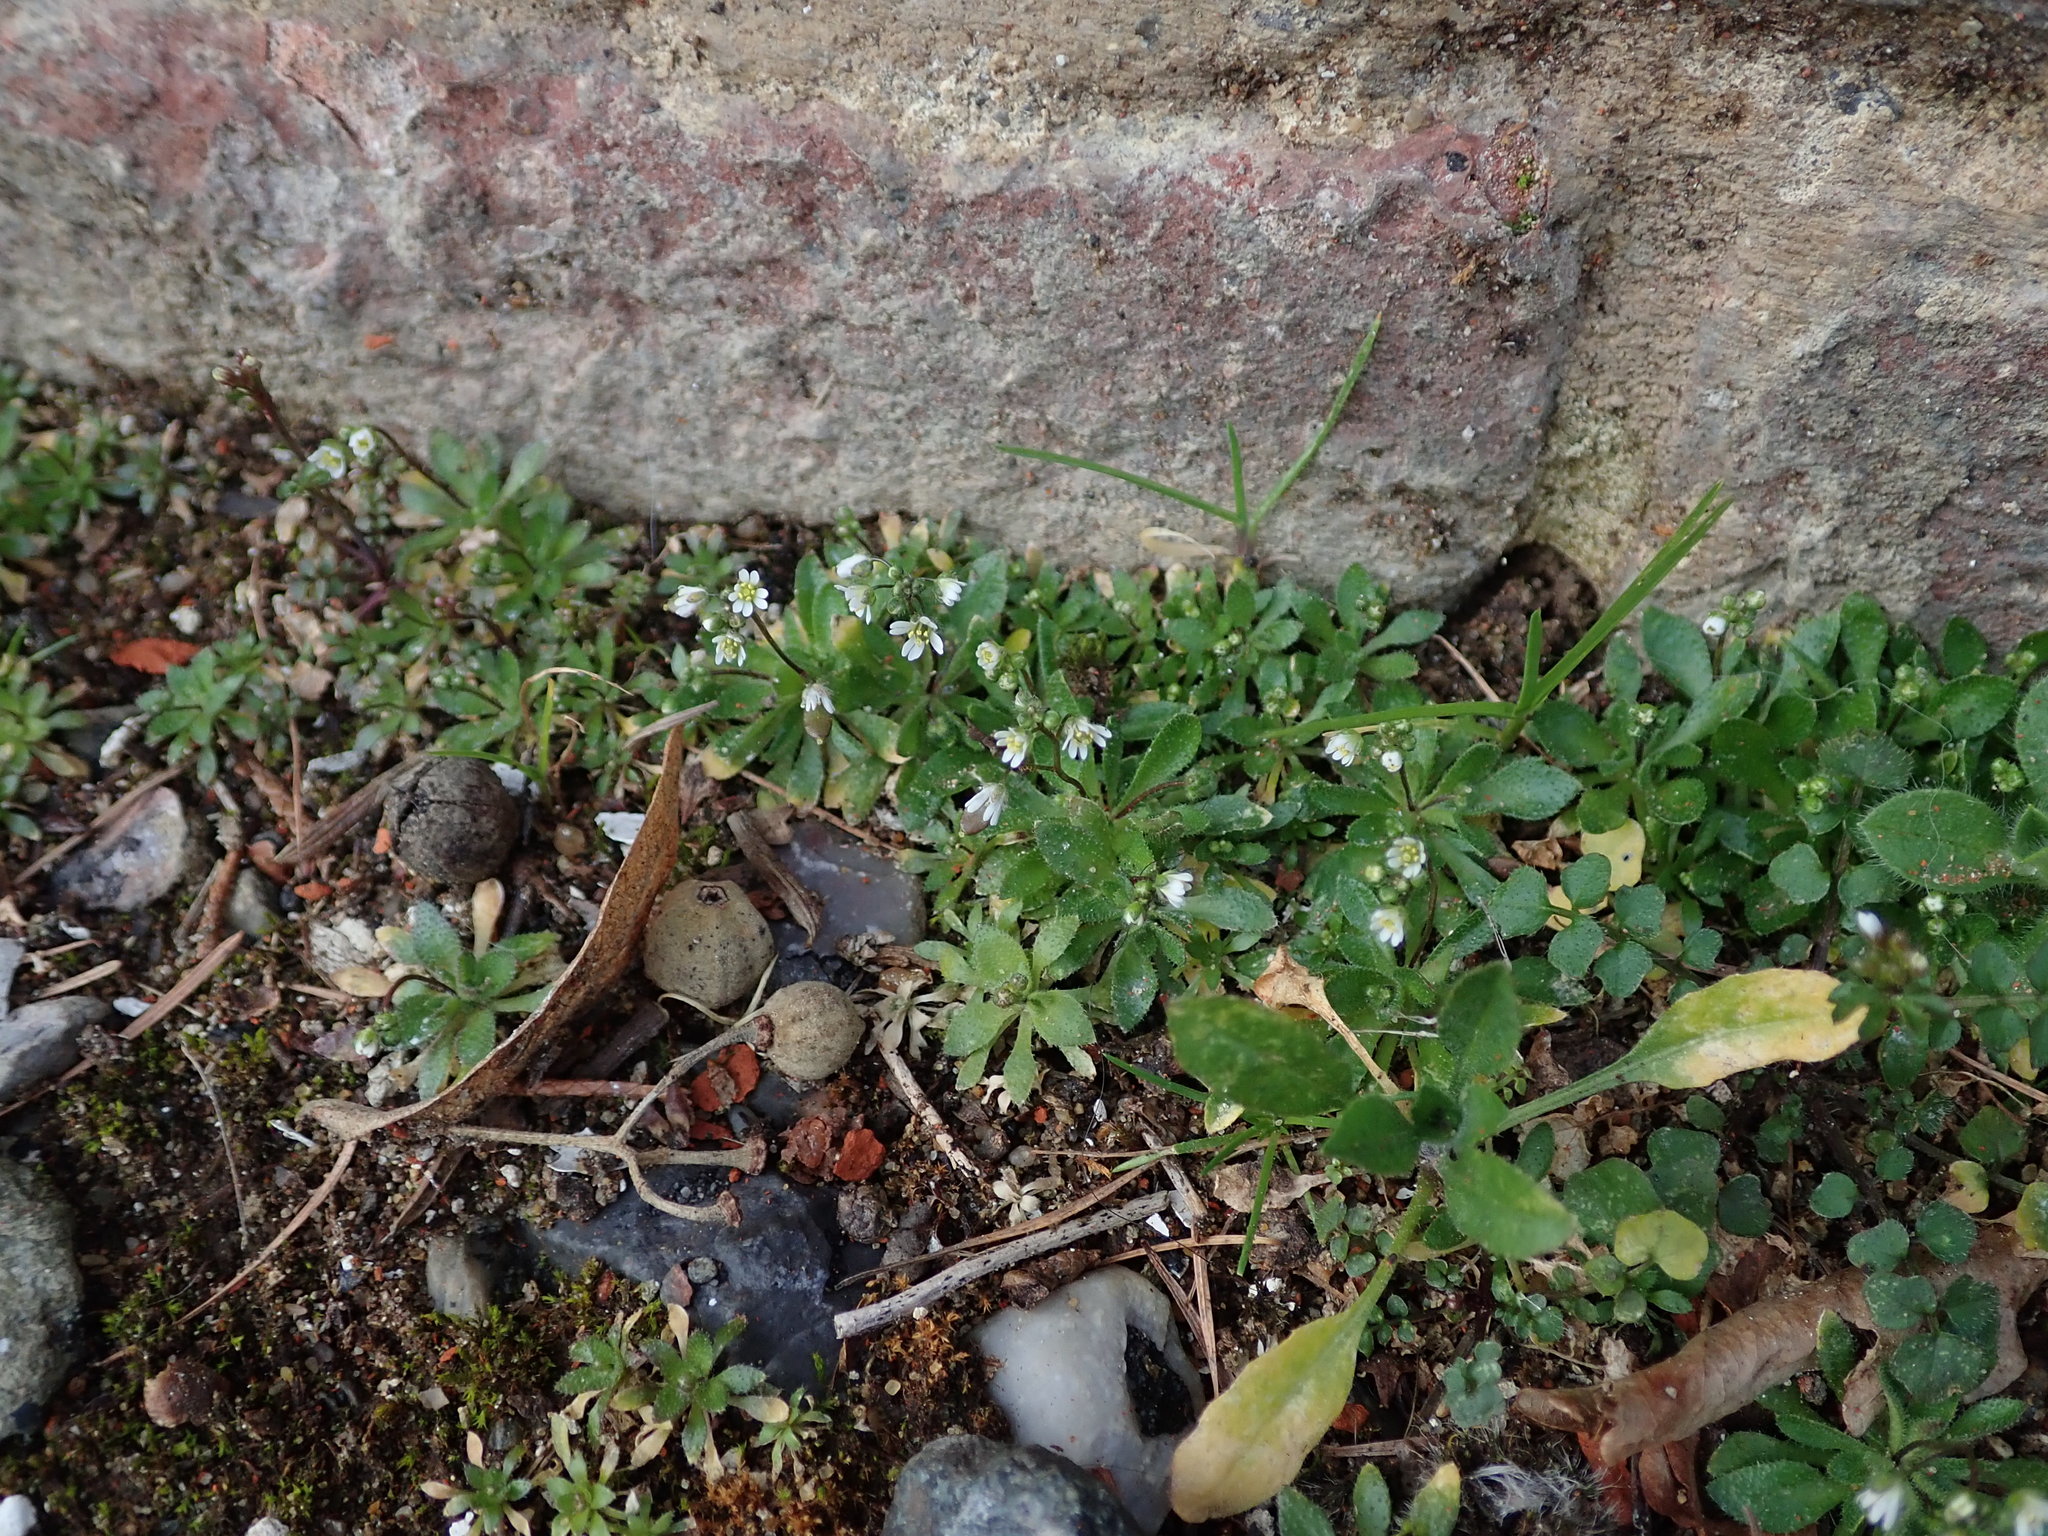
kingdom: Plantae
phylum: Tracheophyta
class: Magnoliopsida
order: Brassicales
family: Brassicaceae
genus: Draba
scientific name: Draba verna
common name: Spring draba
